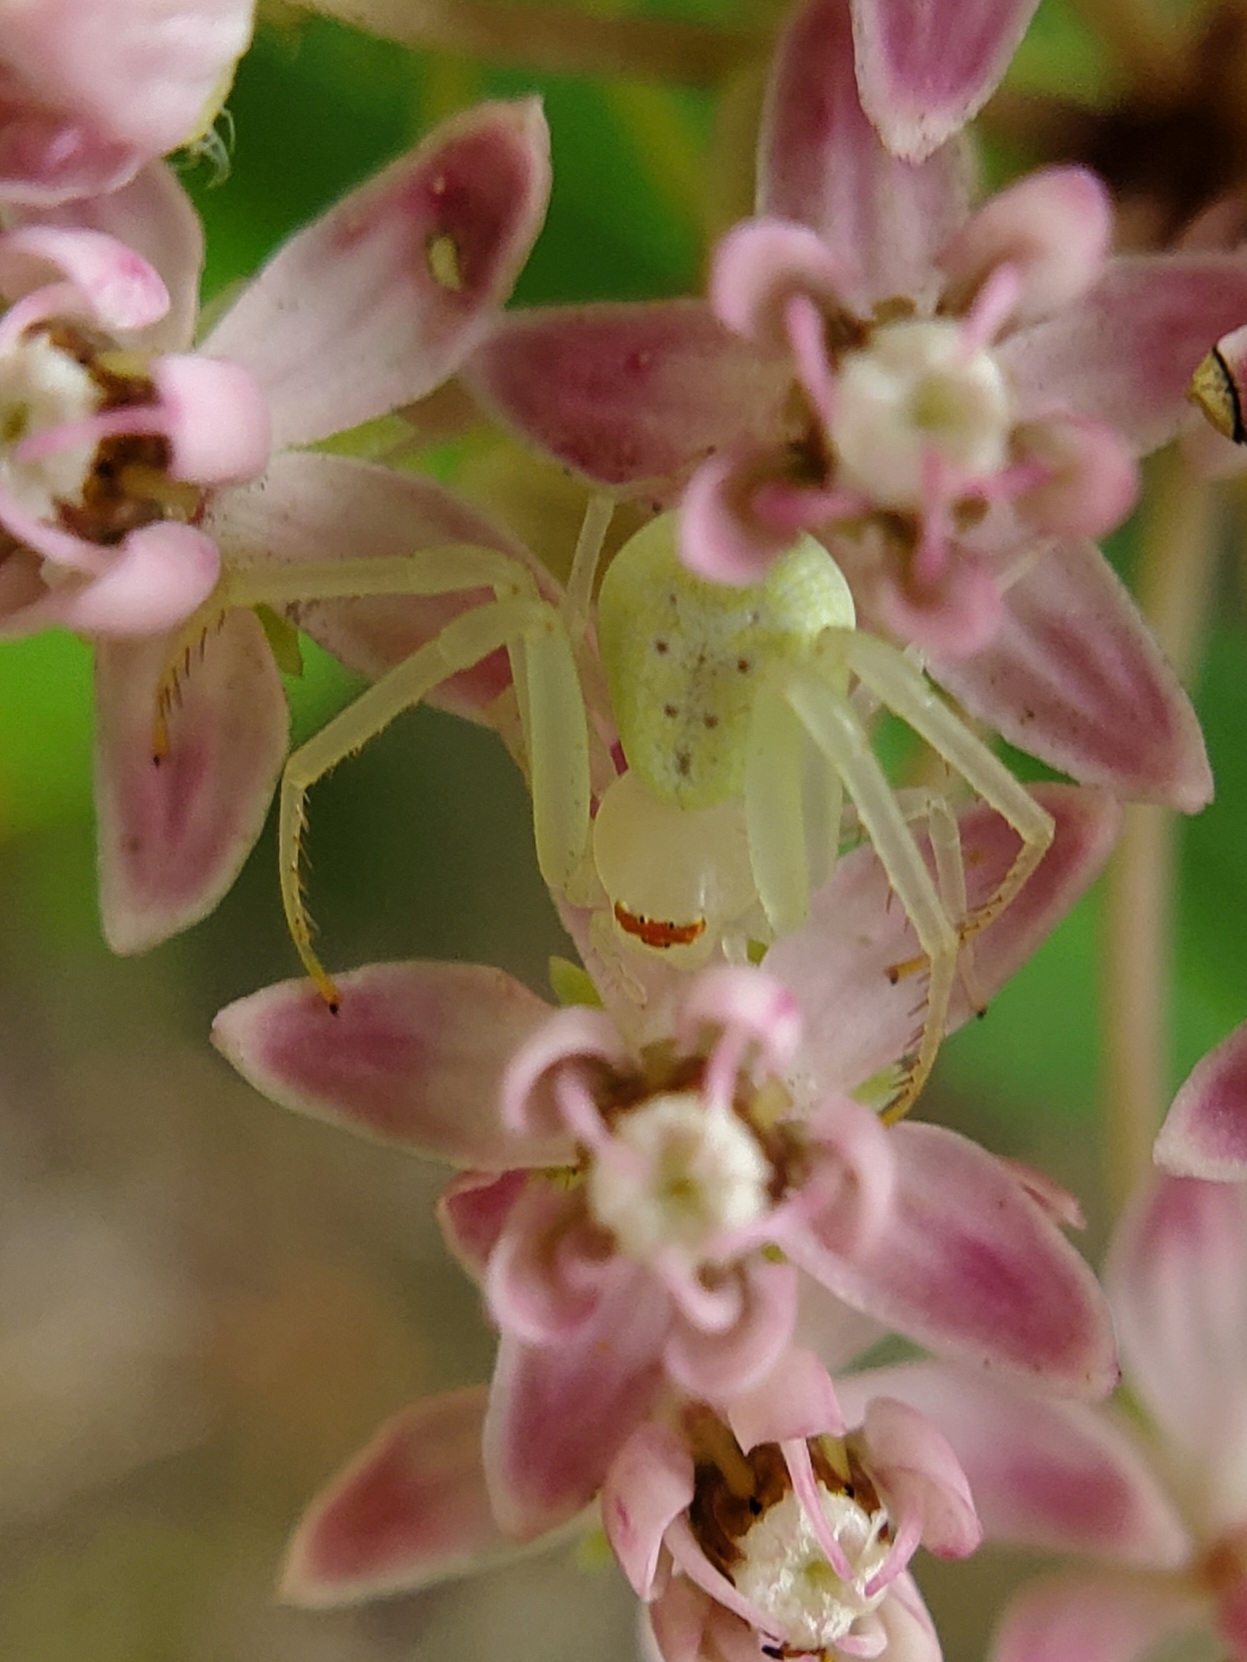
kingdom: Animalia
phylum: Arthropoda
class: Arachnida
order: Araneae
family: Thomisidae
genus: Misumessus
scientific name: Misumessus oblongus
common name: American green crab spider
